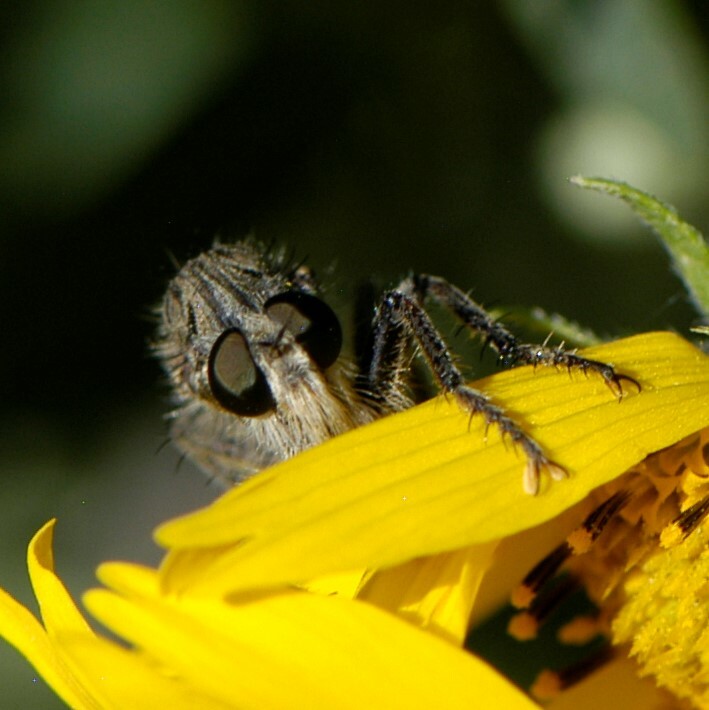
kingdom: Animalia
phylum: Arthropoda
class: Insecta
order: Diptera
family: Asilidae
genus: Efferia
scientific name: Efferia
